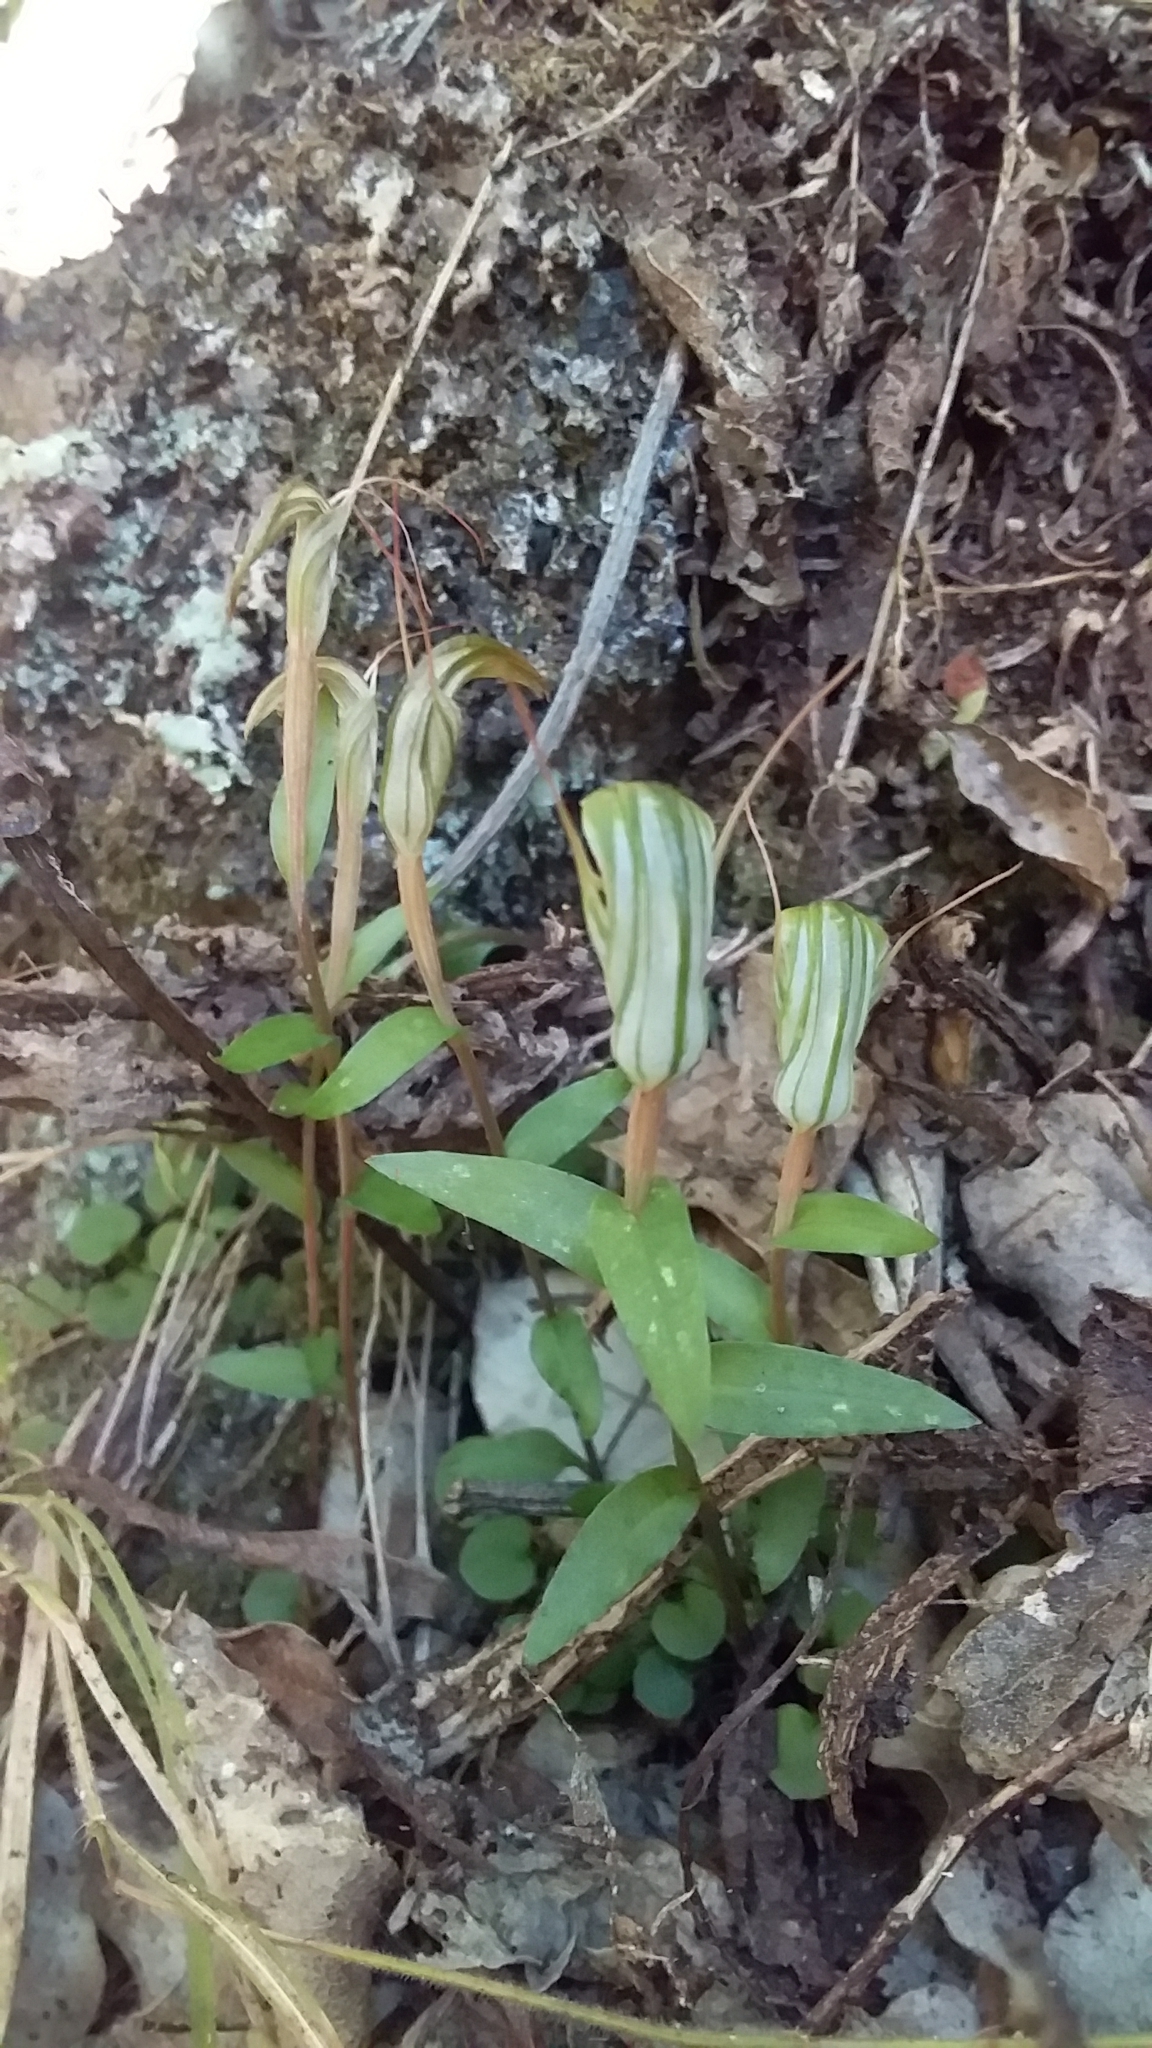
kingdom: Plantae
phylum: Tracheophyta
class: Liliopsida
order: Asparagales
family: Orchidaceae
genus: Pterostylis
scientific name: Pterostylis alobula
